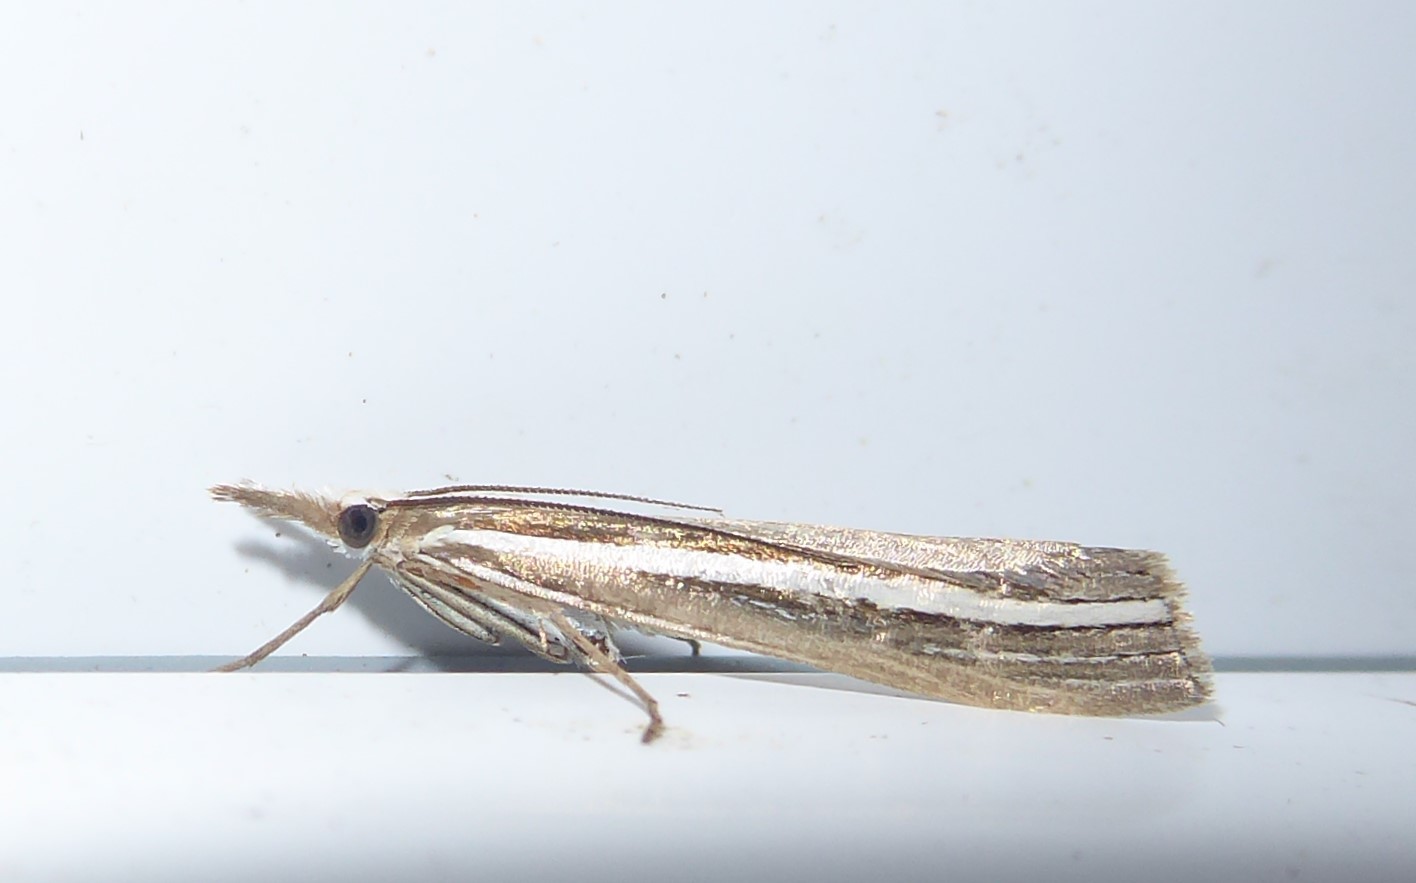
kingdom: Animalia
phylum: Arthropoda
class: Insecta
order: Lepidoptera
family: Crambidae
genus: Orocrambus
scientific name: Orocrambus enchophorus
